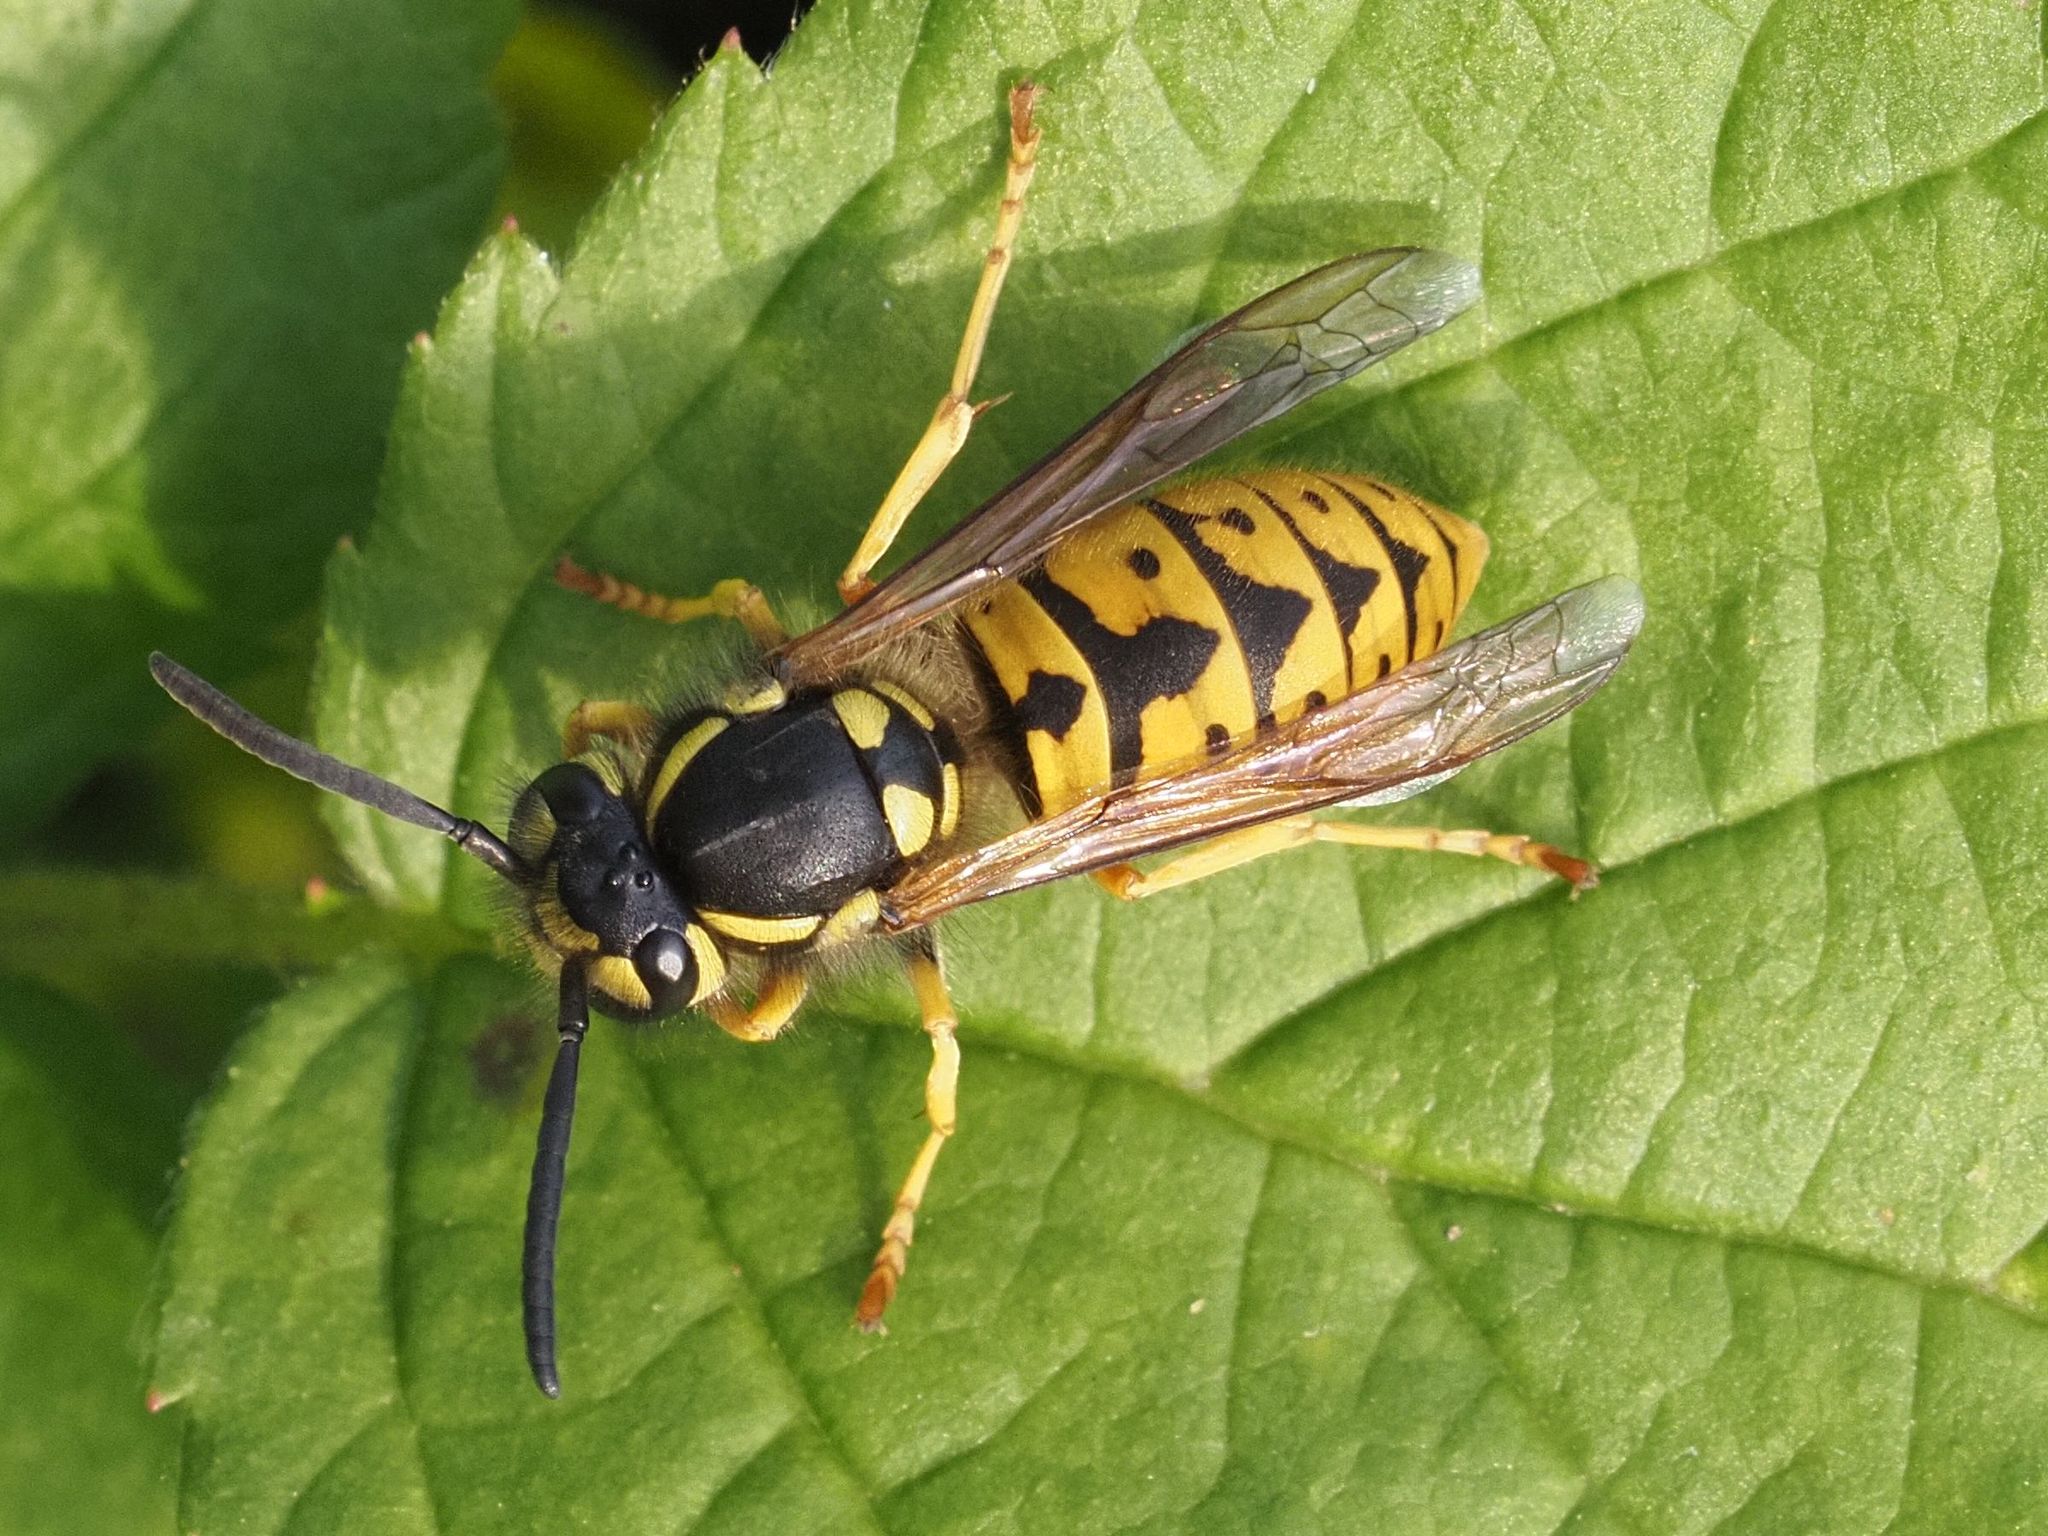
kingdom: Animalia
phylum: Arthropoda
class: Insecta
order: Hymenoptera
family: Vespidae
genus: Vespula
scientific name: Vespula germanica
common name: German wasp
